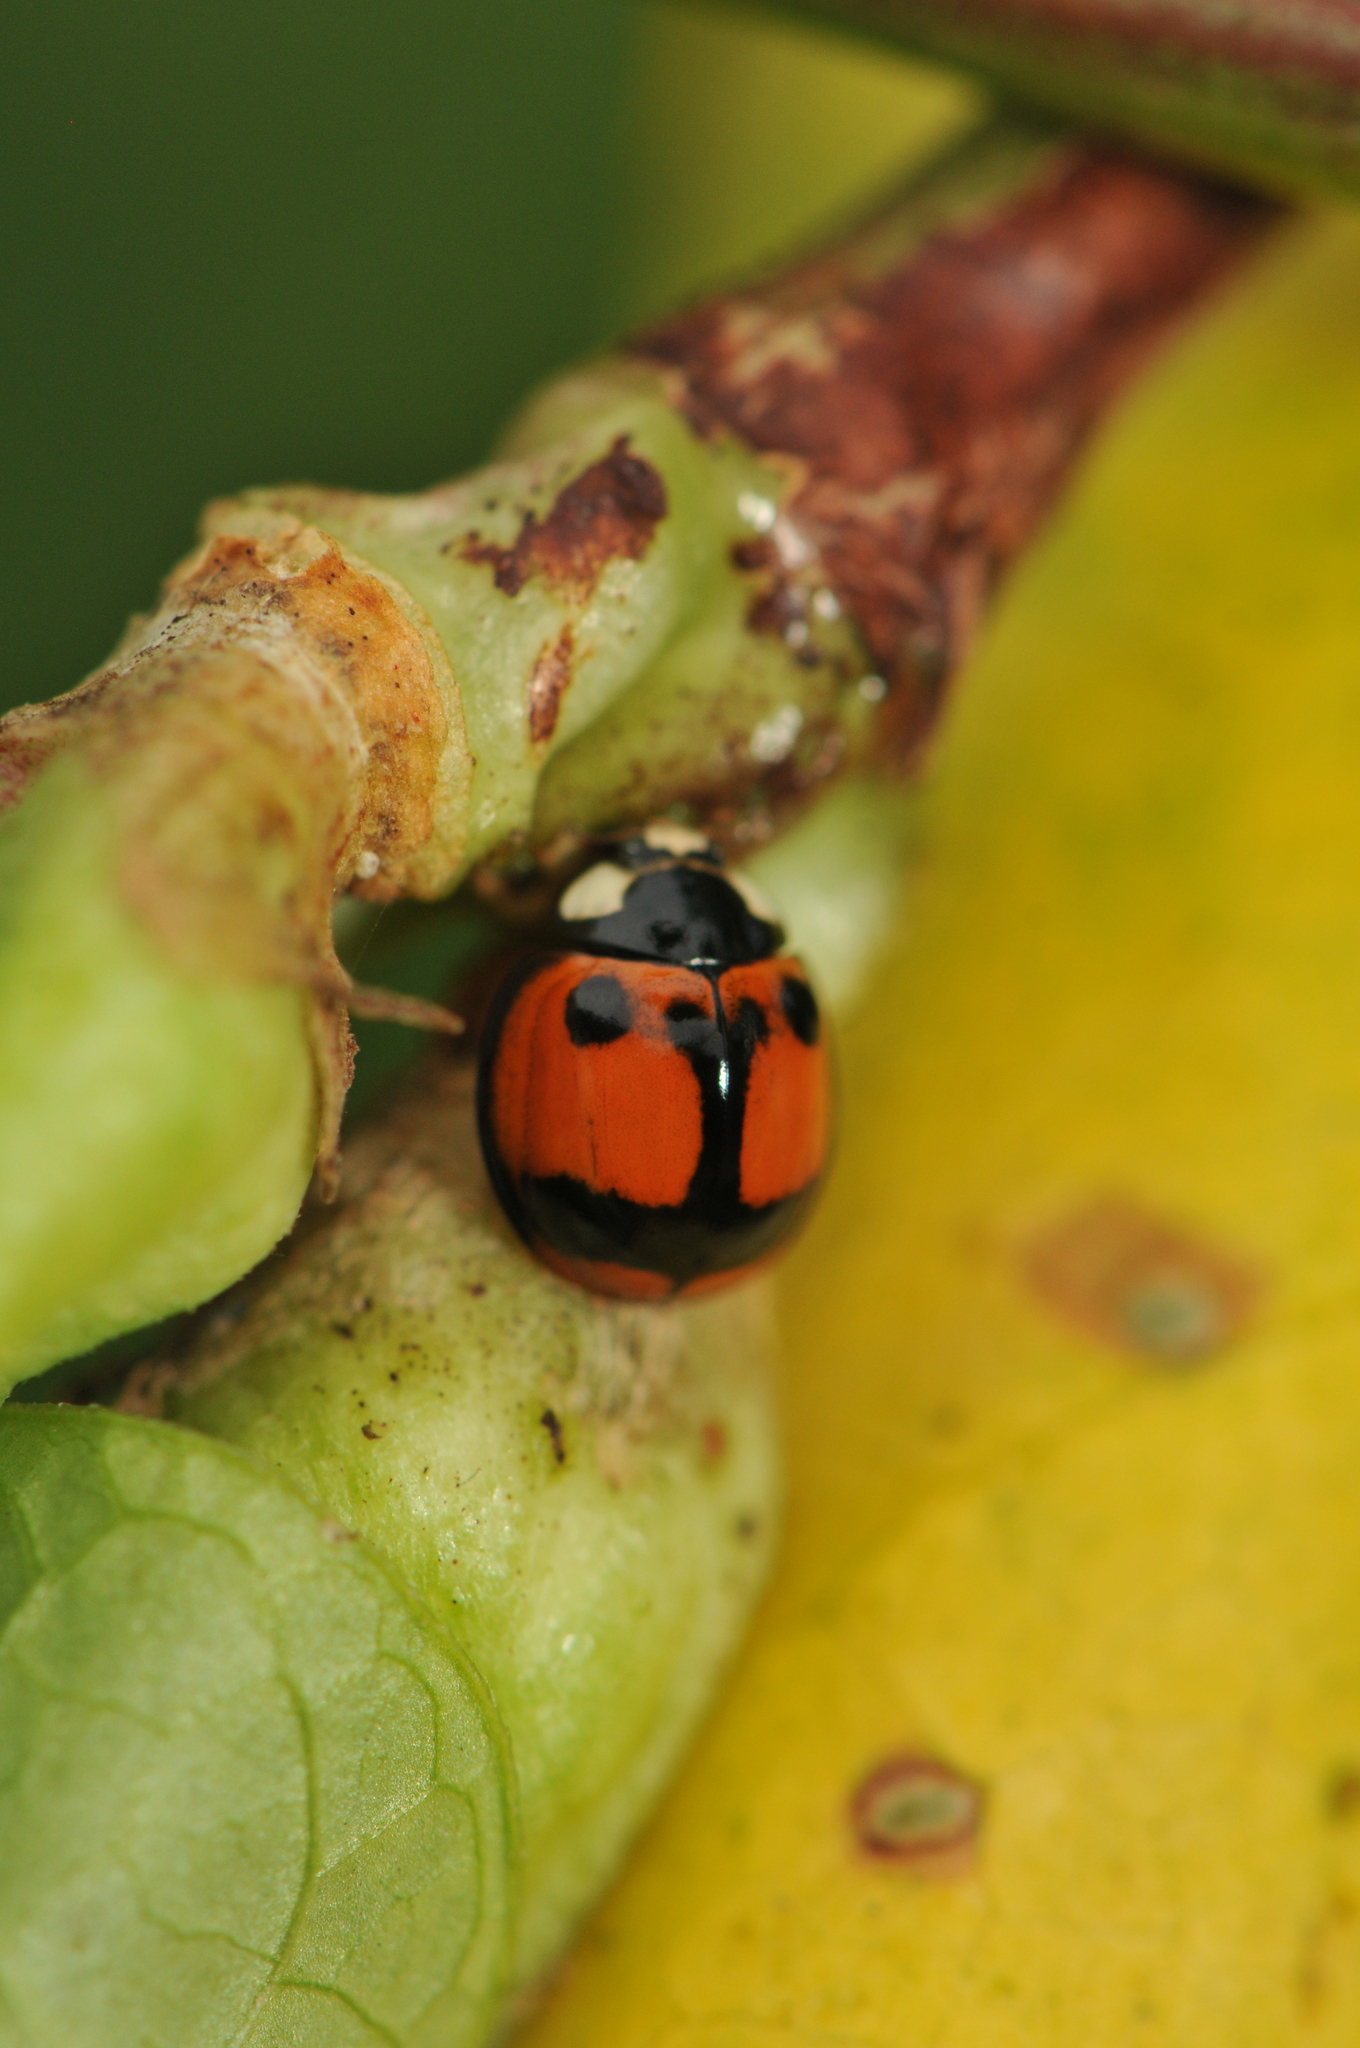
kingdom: Animalia
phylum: Arthropoda
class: Insecta
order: Coleoptera
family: Coccinellidae
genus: Coelophora
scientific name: Coelophora biplagiata
